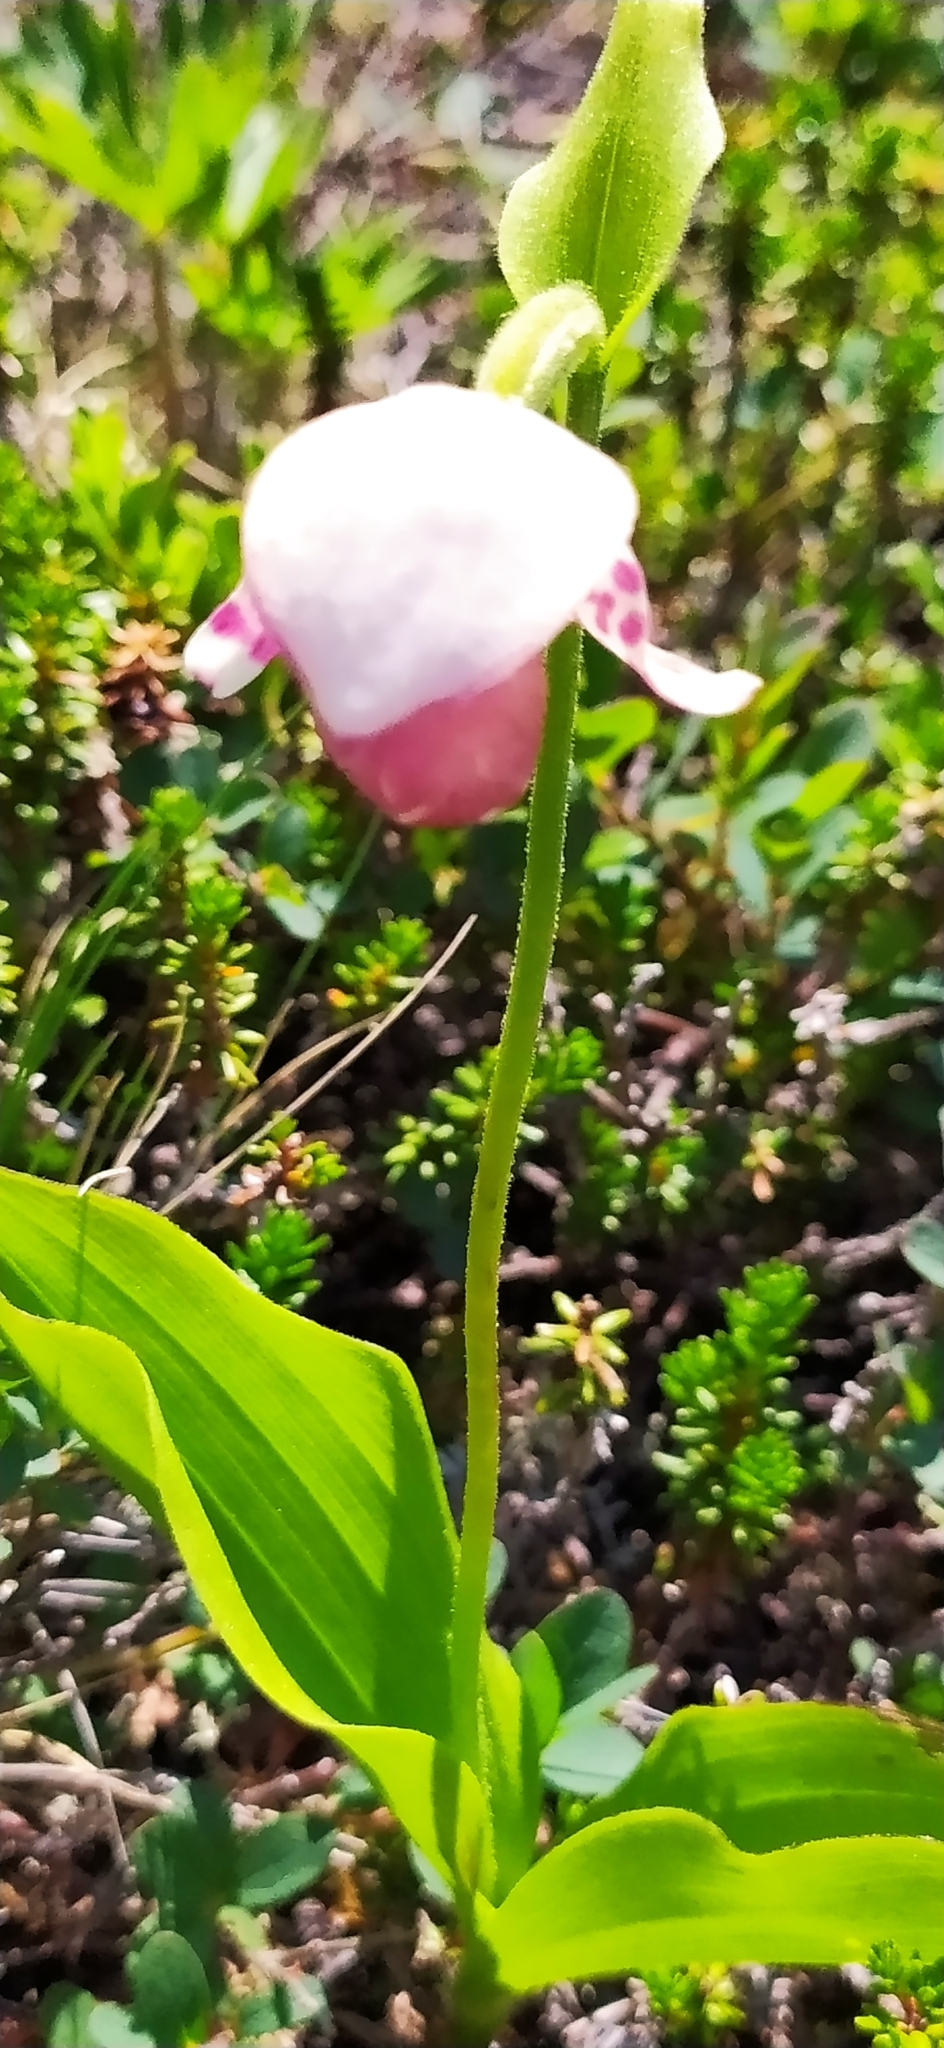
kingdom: Plantae
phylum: Tracheophyta
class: Liliopsida
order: Asparagales
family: Orchidaceae
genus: Cypripedium
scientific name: Cypripedium guttatum
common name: Pink lady slipper
